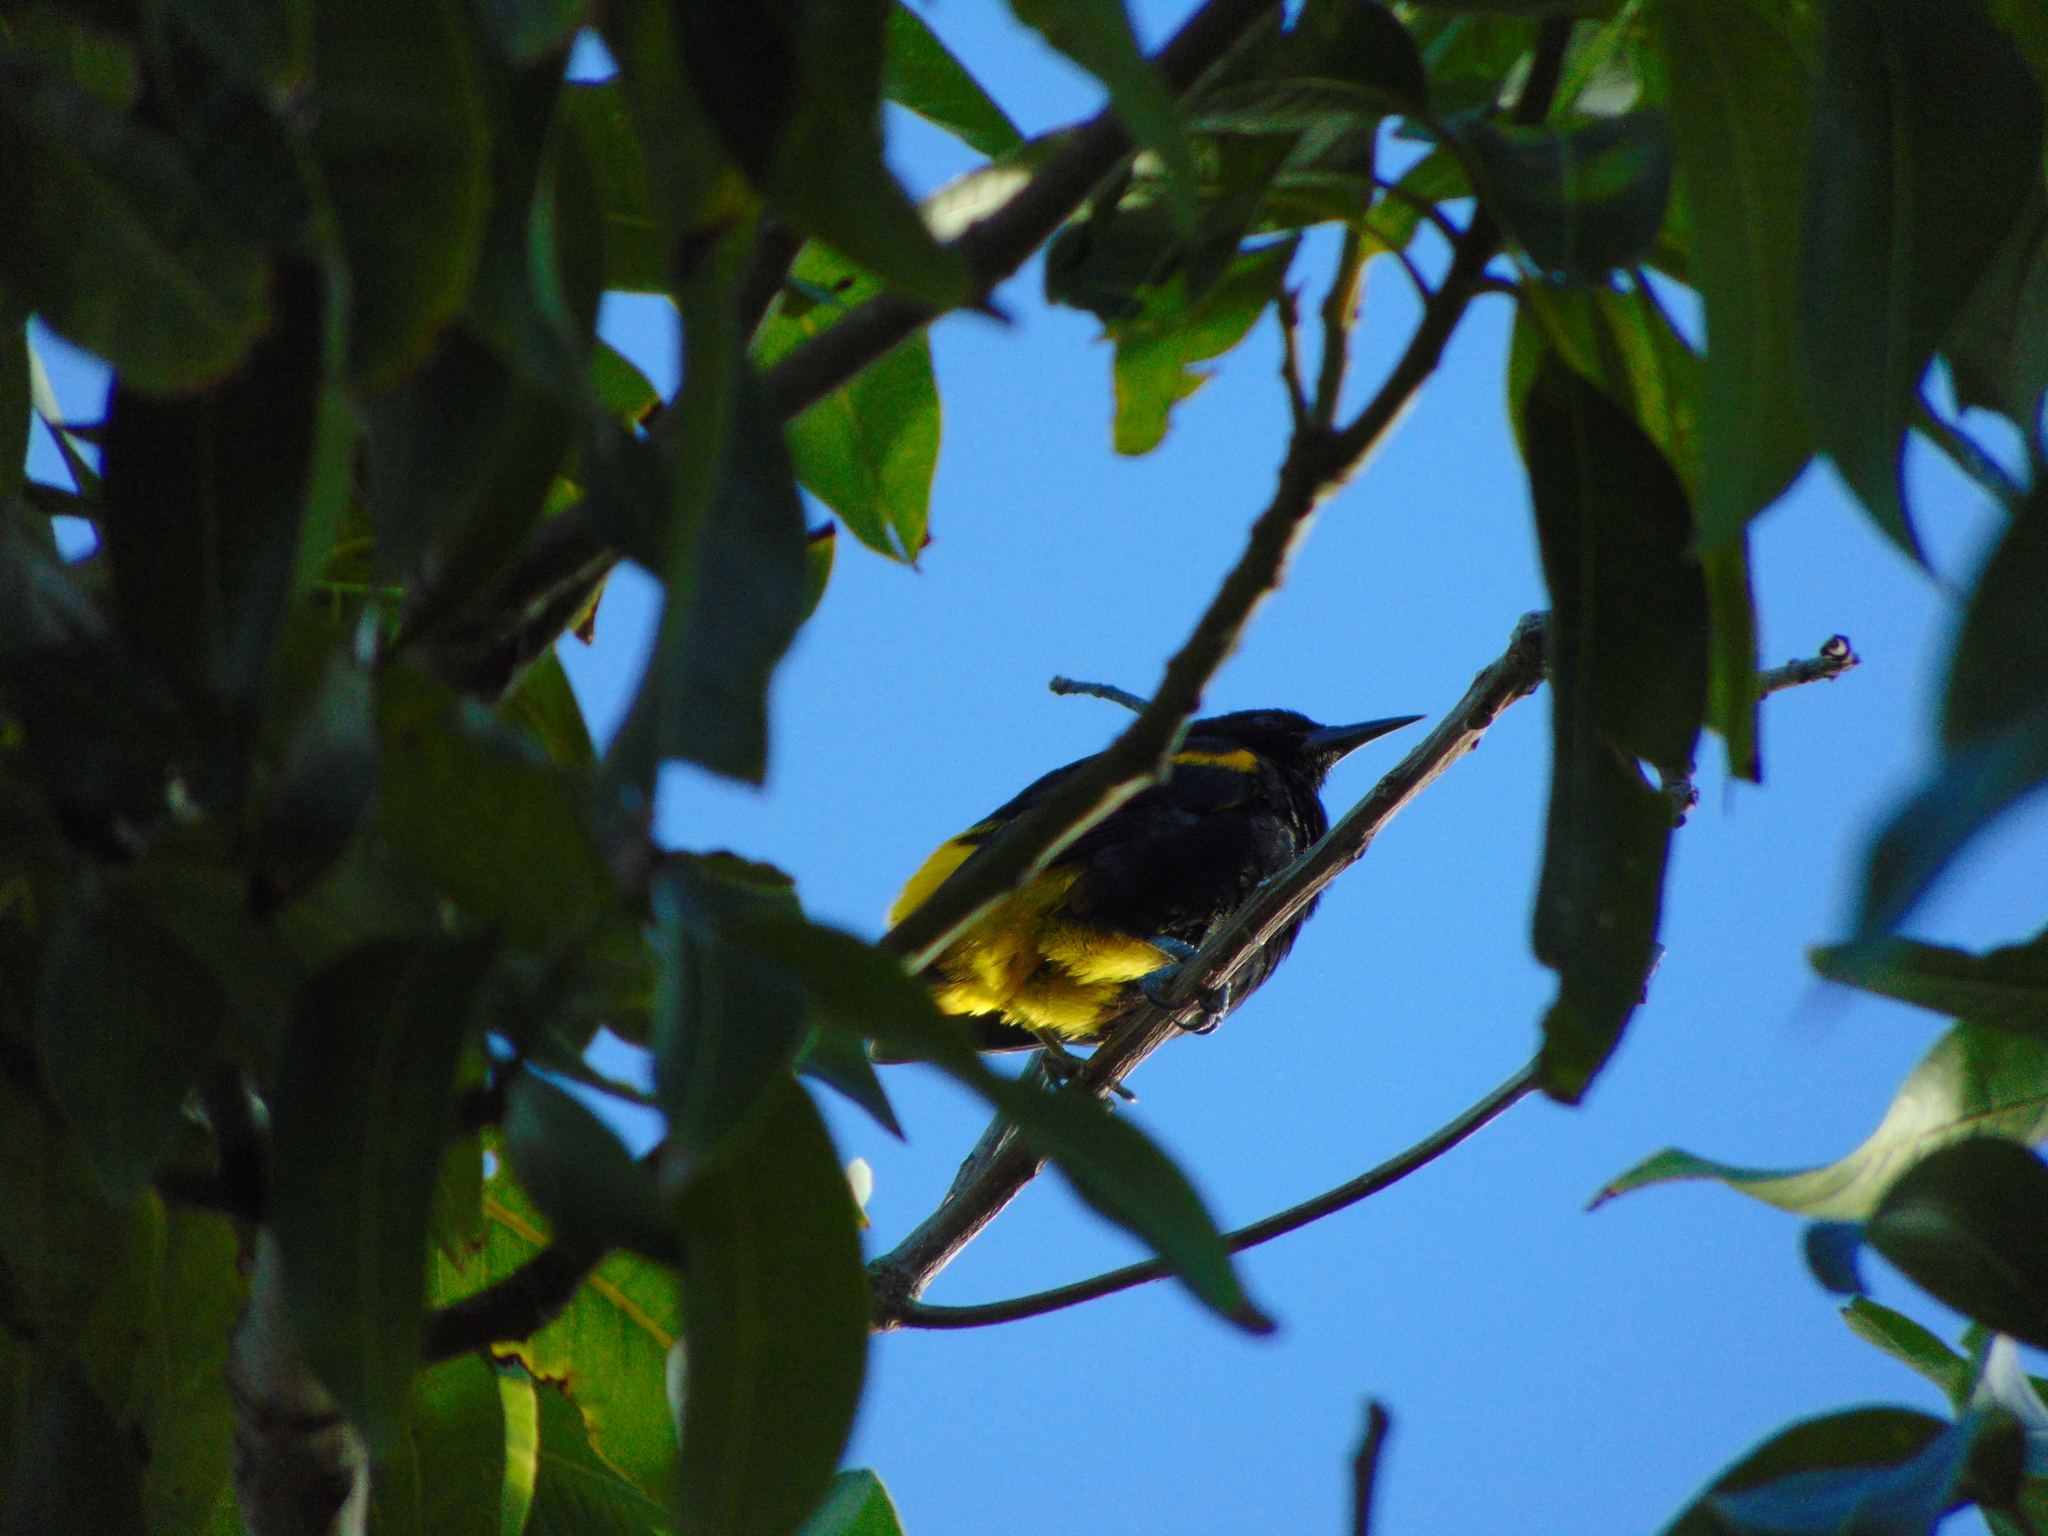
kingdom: Animalia
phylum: Chordata
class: Aves
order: Passeriformes
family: Icteridae
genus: Icterus
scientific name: Icterus portoricensis
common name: Puerto rican oriole
